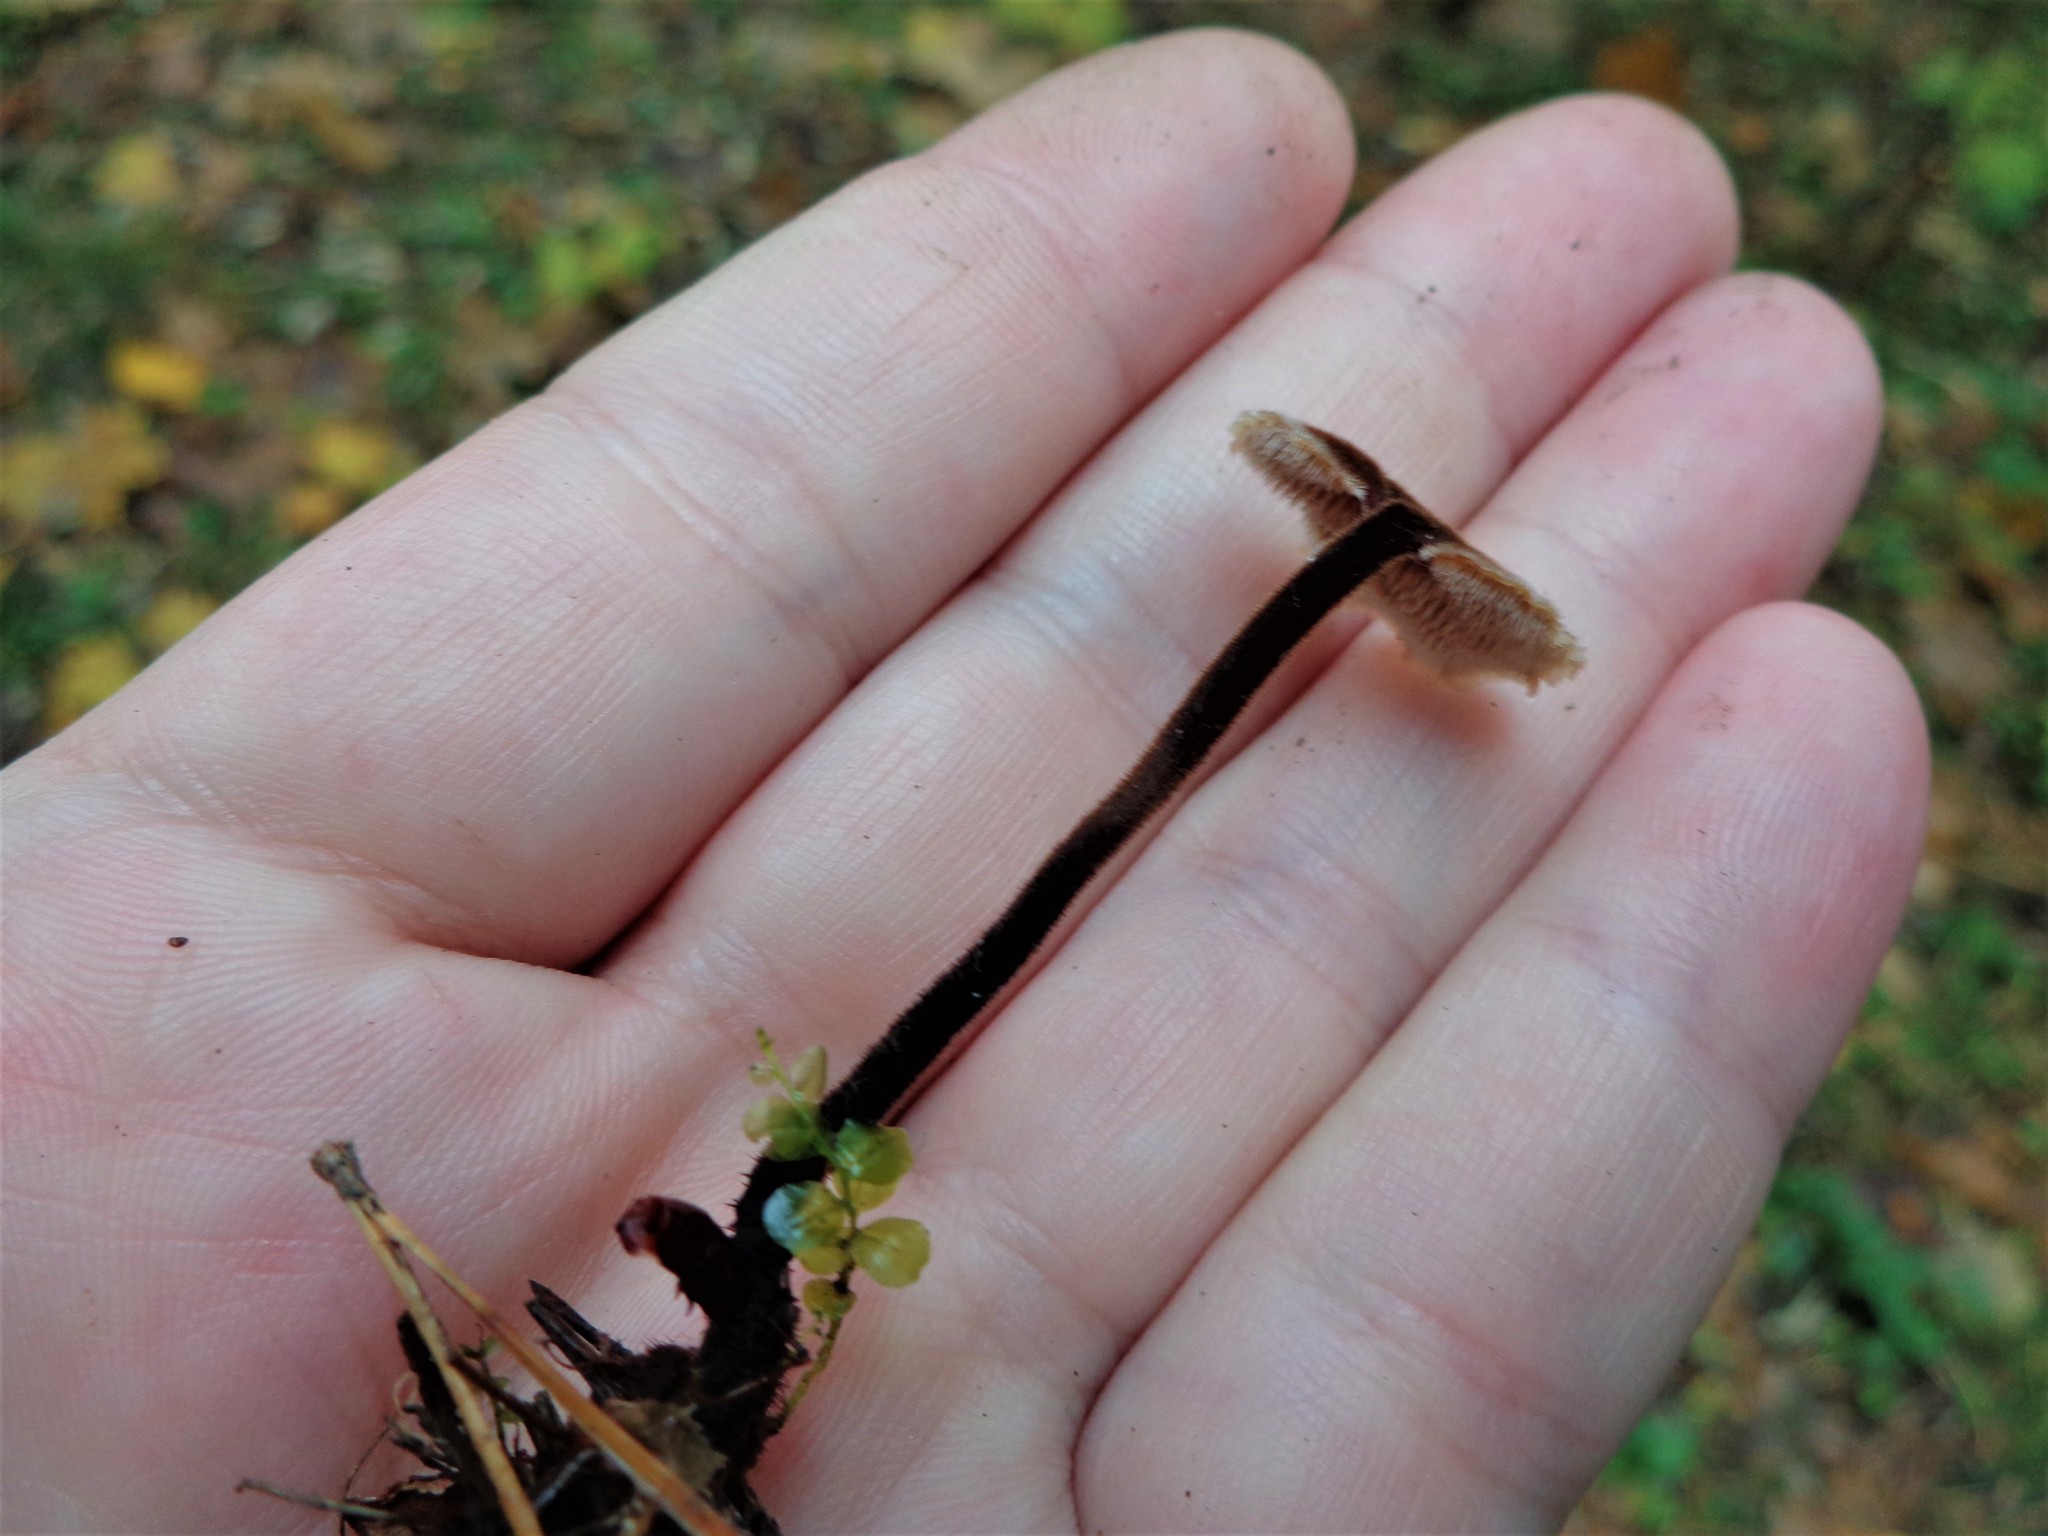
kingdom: Fungi
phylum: Basidiomycota
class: Agaricomycetes
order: Russulales
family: Auriscalpiaceae
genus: Auriscalpium
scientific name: Auriscalpium vulgare
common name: Earpick fungus
